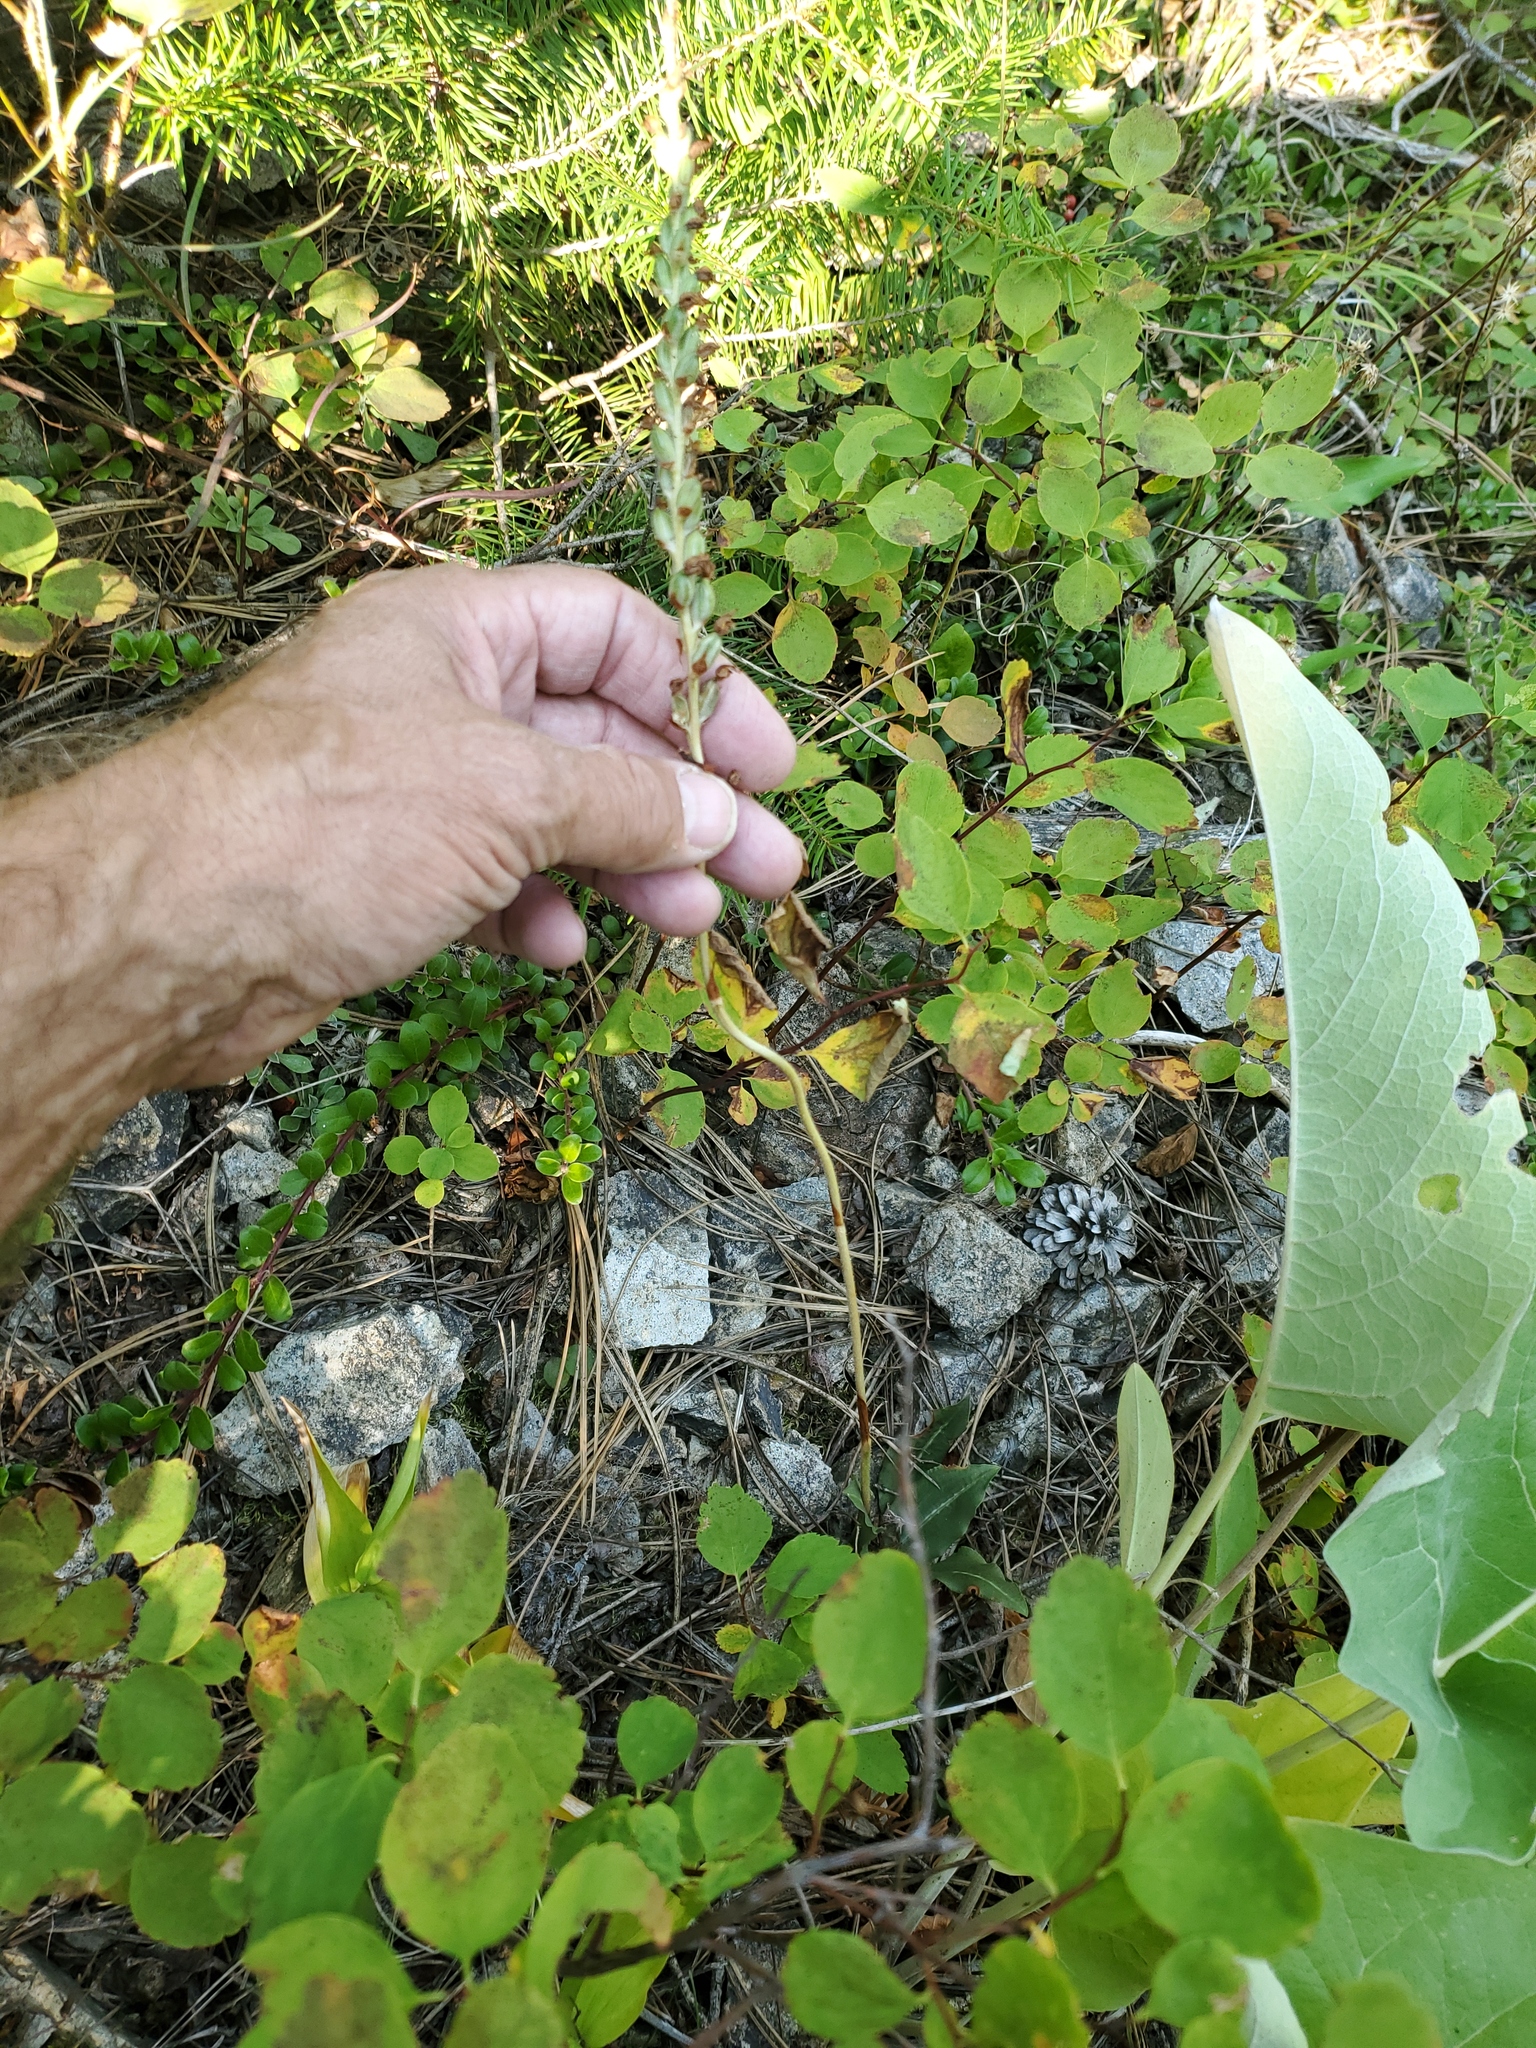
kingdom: Plantae
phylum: Tracheophyta
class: Liliopsida
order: Asparagales
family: Orchidaceae
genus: Goodyera
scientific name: Goodyera oblongifolia
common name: Giant rattlesnake-plantain
